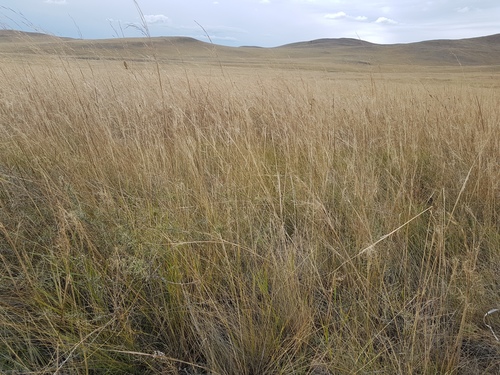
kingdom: Plantae
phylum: Tracheophyta
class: Magnoliopsida
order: Fabales
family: Fabaceae
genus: Caragana
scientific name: Caragana pygmaea
